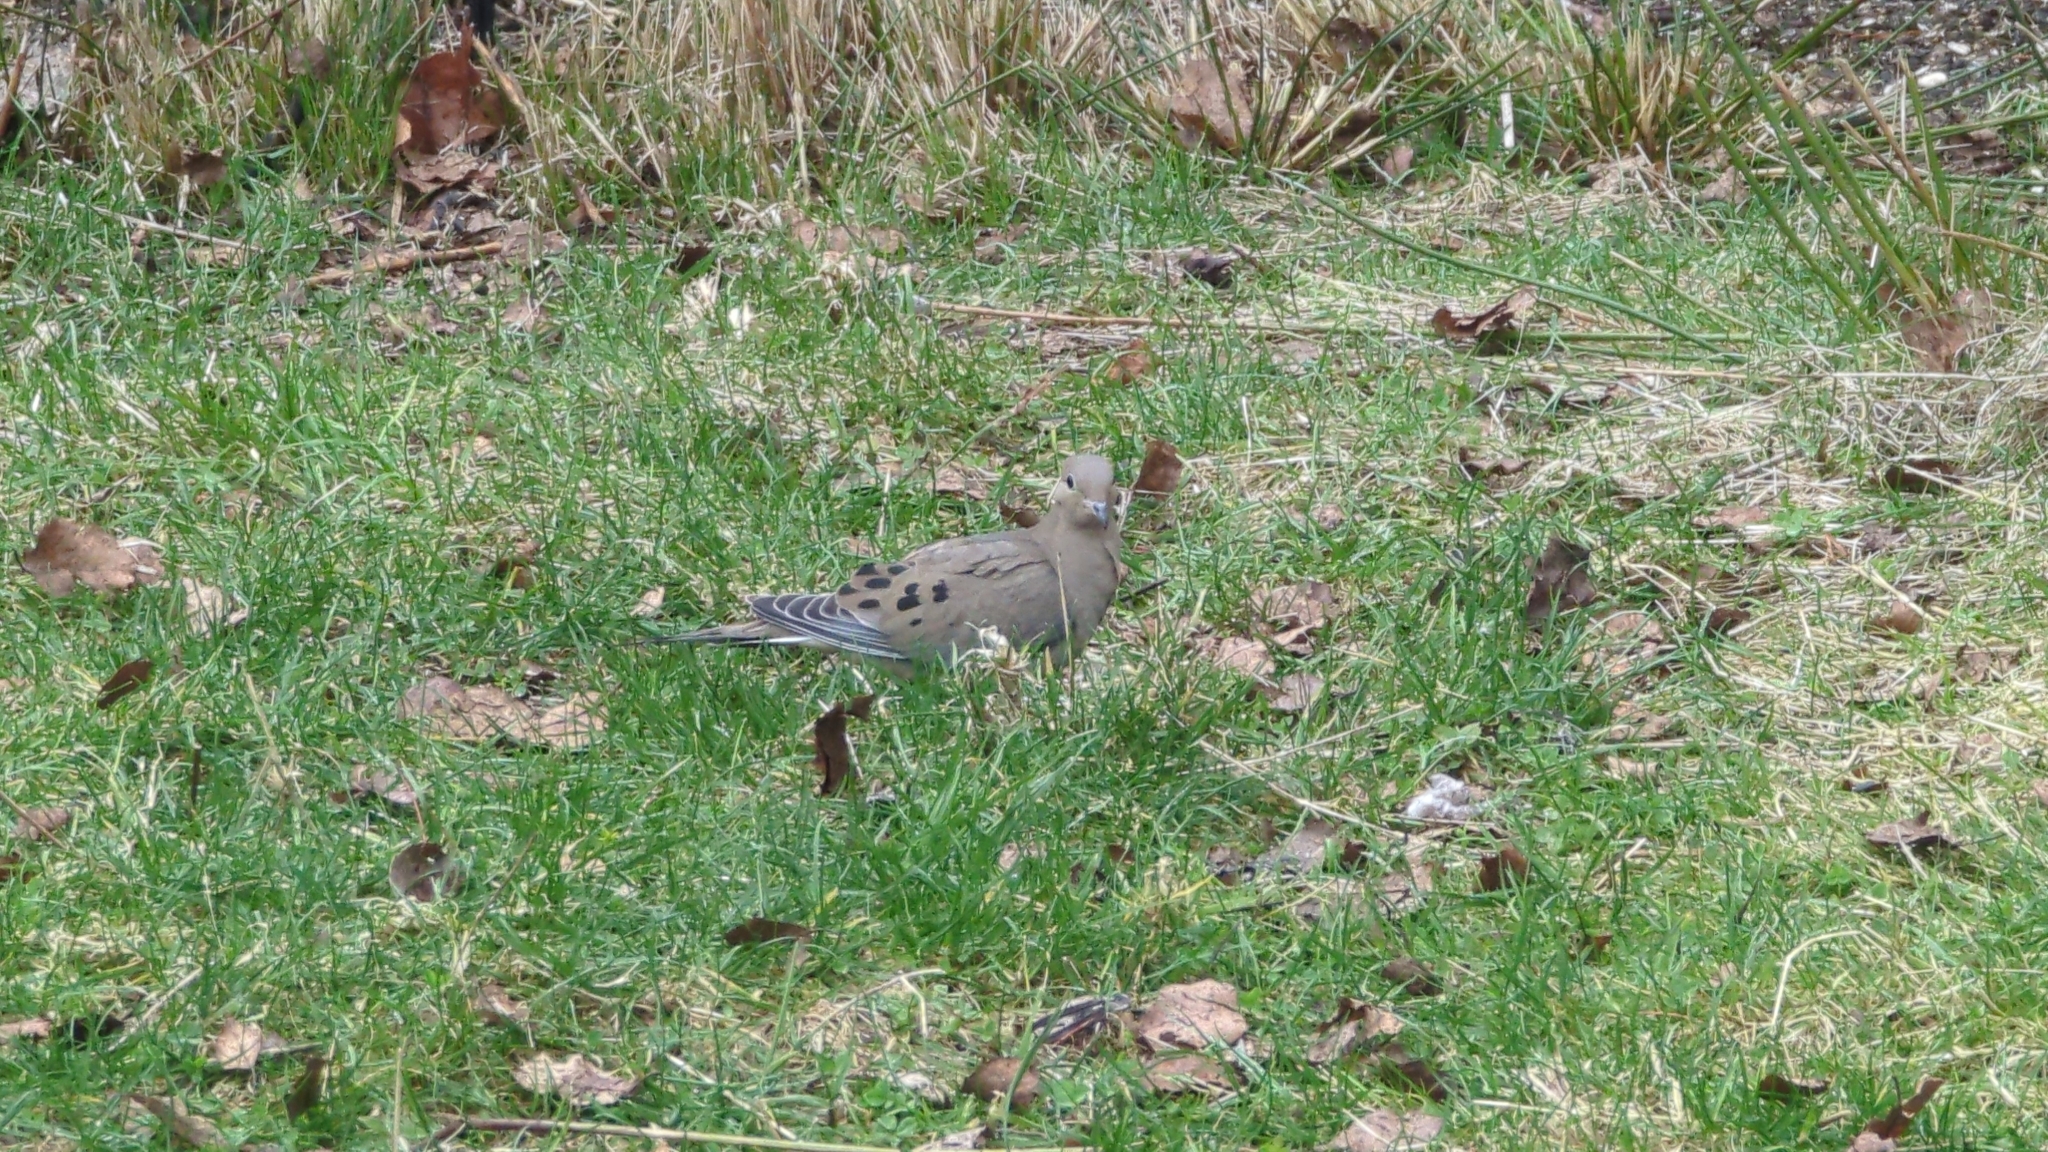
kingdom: Animalia
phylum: Chordata
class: Aves
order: Columbiformes
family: Columbidae
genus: Zenaida
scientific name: Zenaida macroura
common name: Mourning dove
